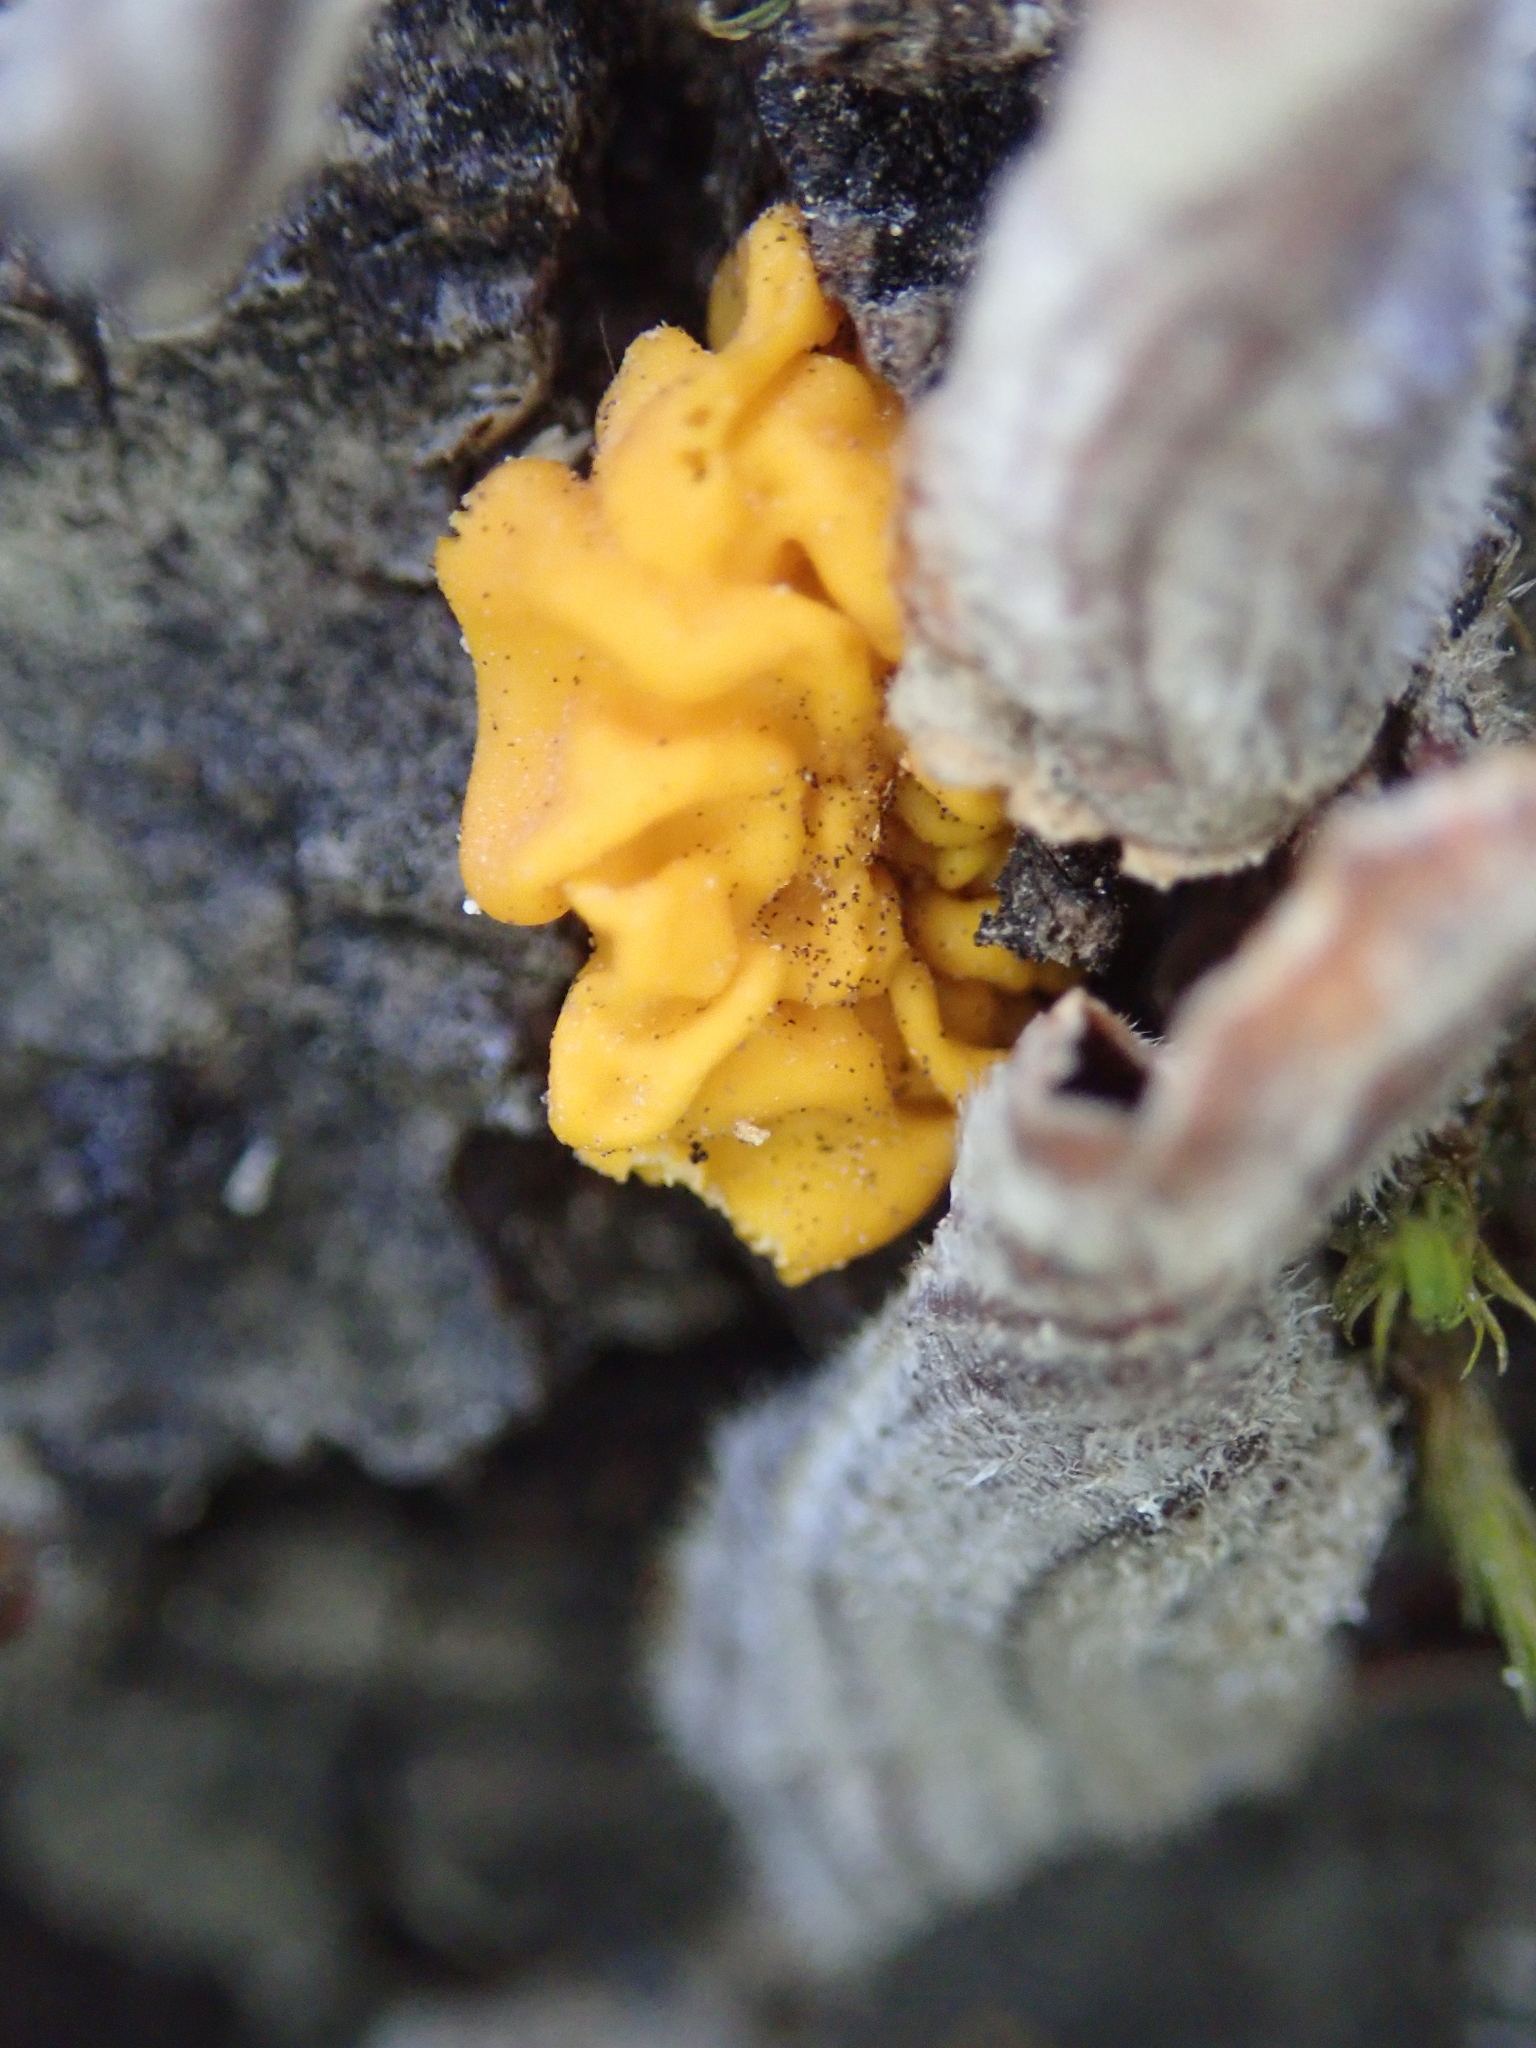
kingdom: Fungi
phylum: Basidiomycota
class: Tremellomycetes
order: Tremellales
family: Naemateliaceae
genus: Naematelia
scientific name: Naematelia aurantia
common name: Golden ear
